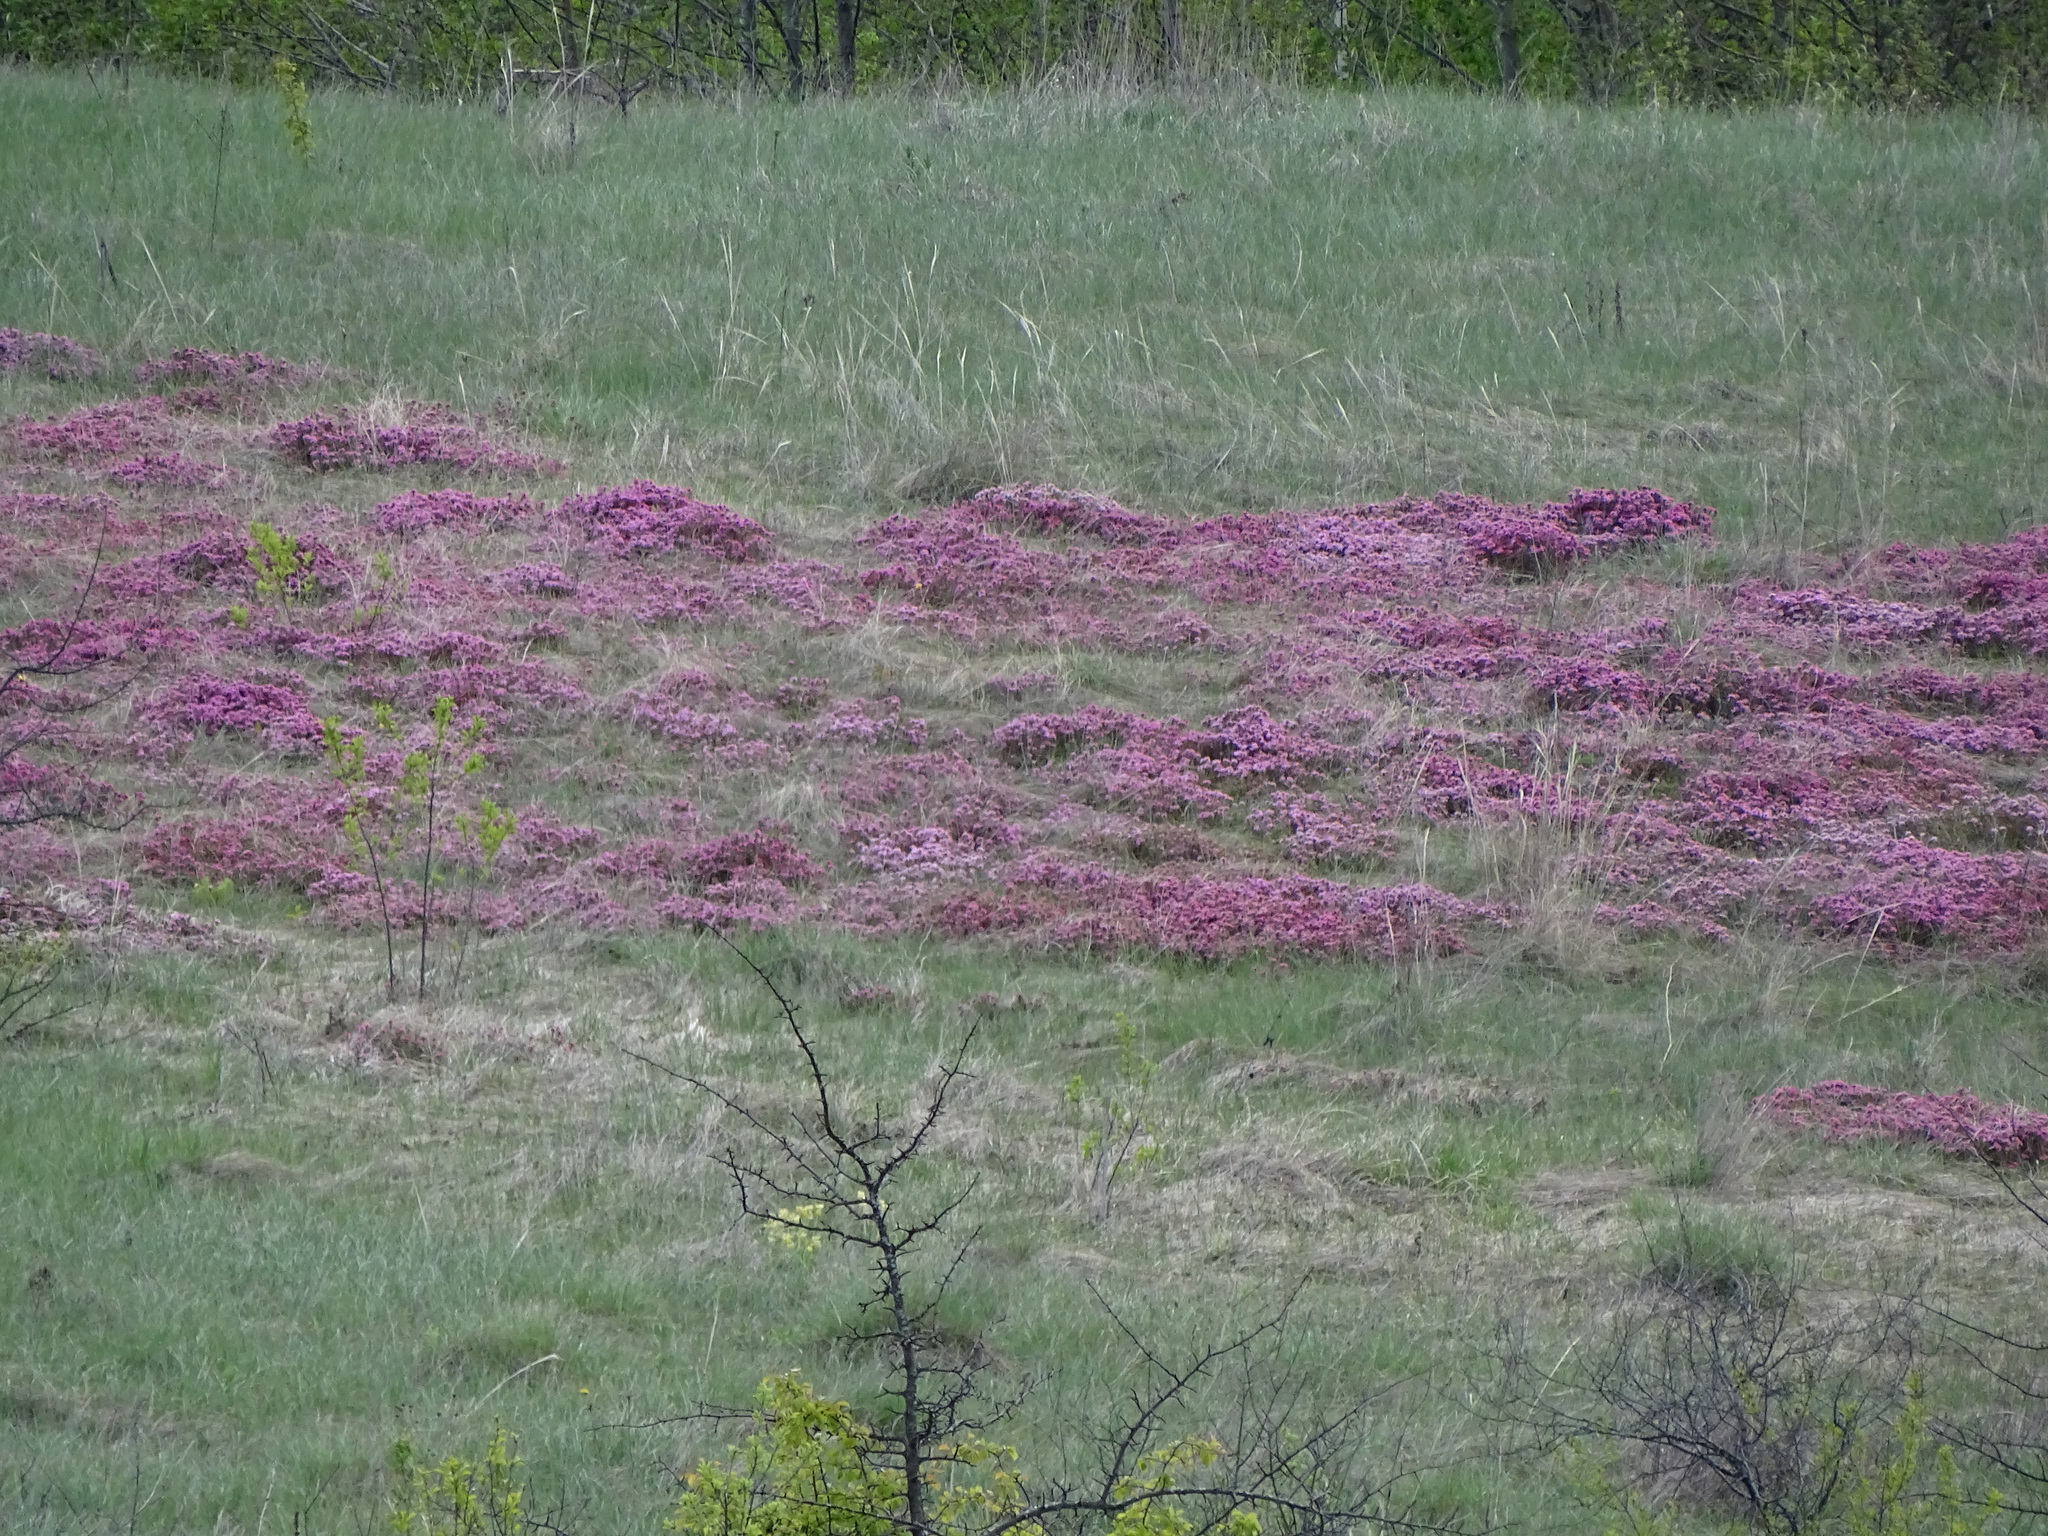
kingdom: Plantae
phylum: Tracheophyta
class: Magnoliopsida
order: Malvales
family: Thymelaeaceae
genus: Daphne
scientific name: Daphne cneorum
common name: Garland-flower
